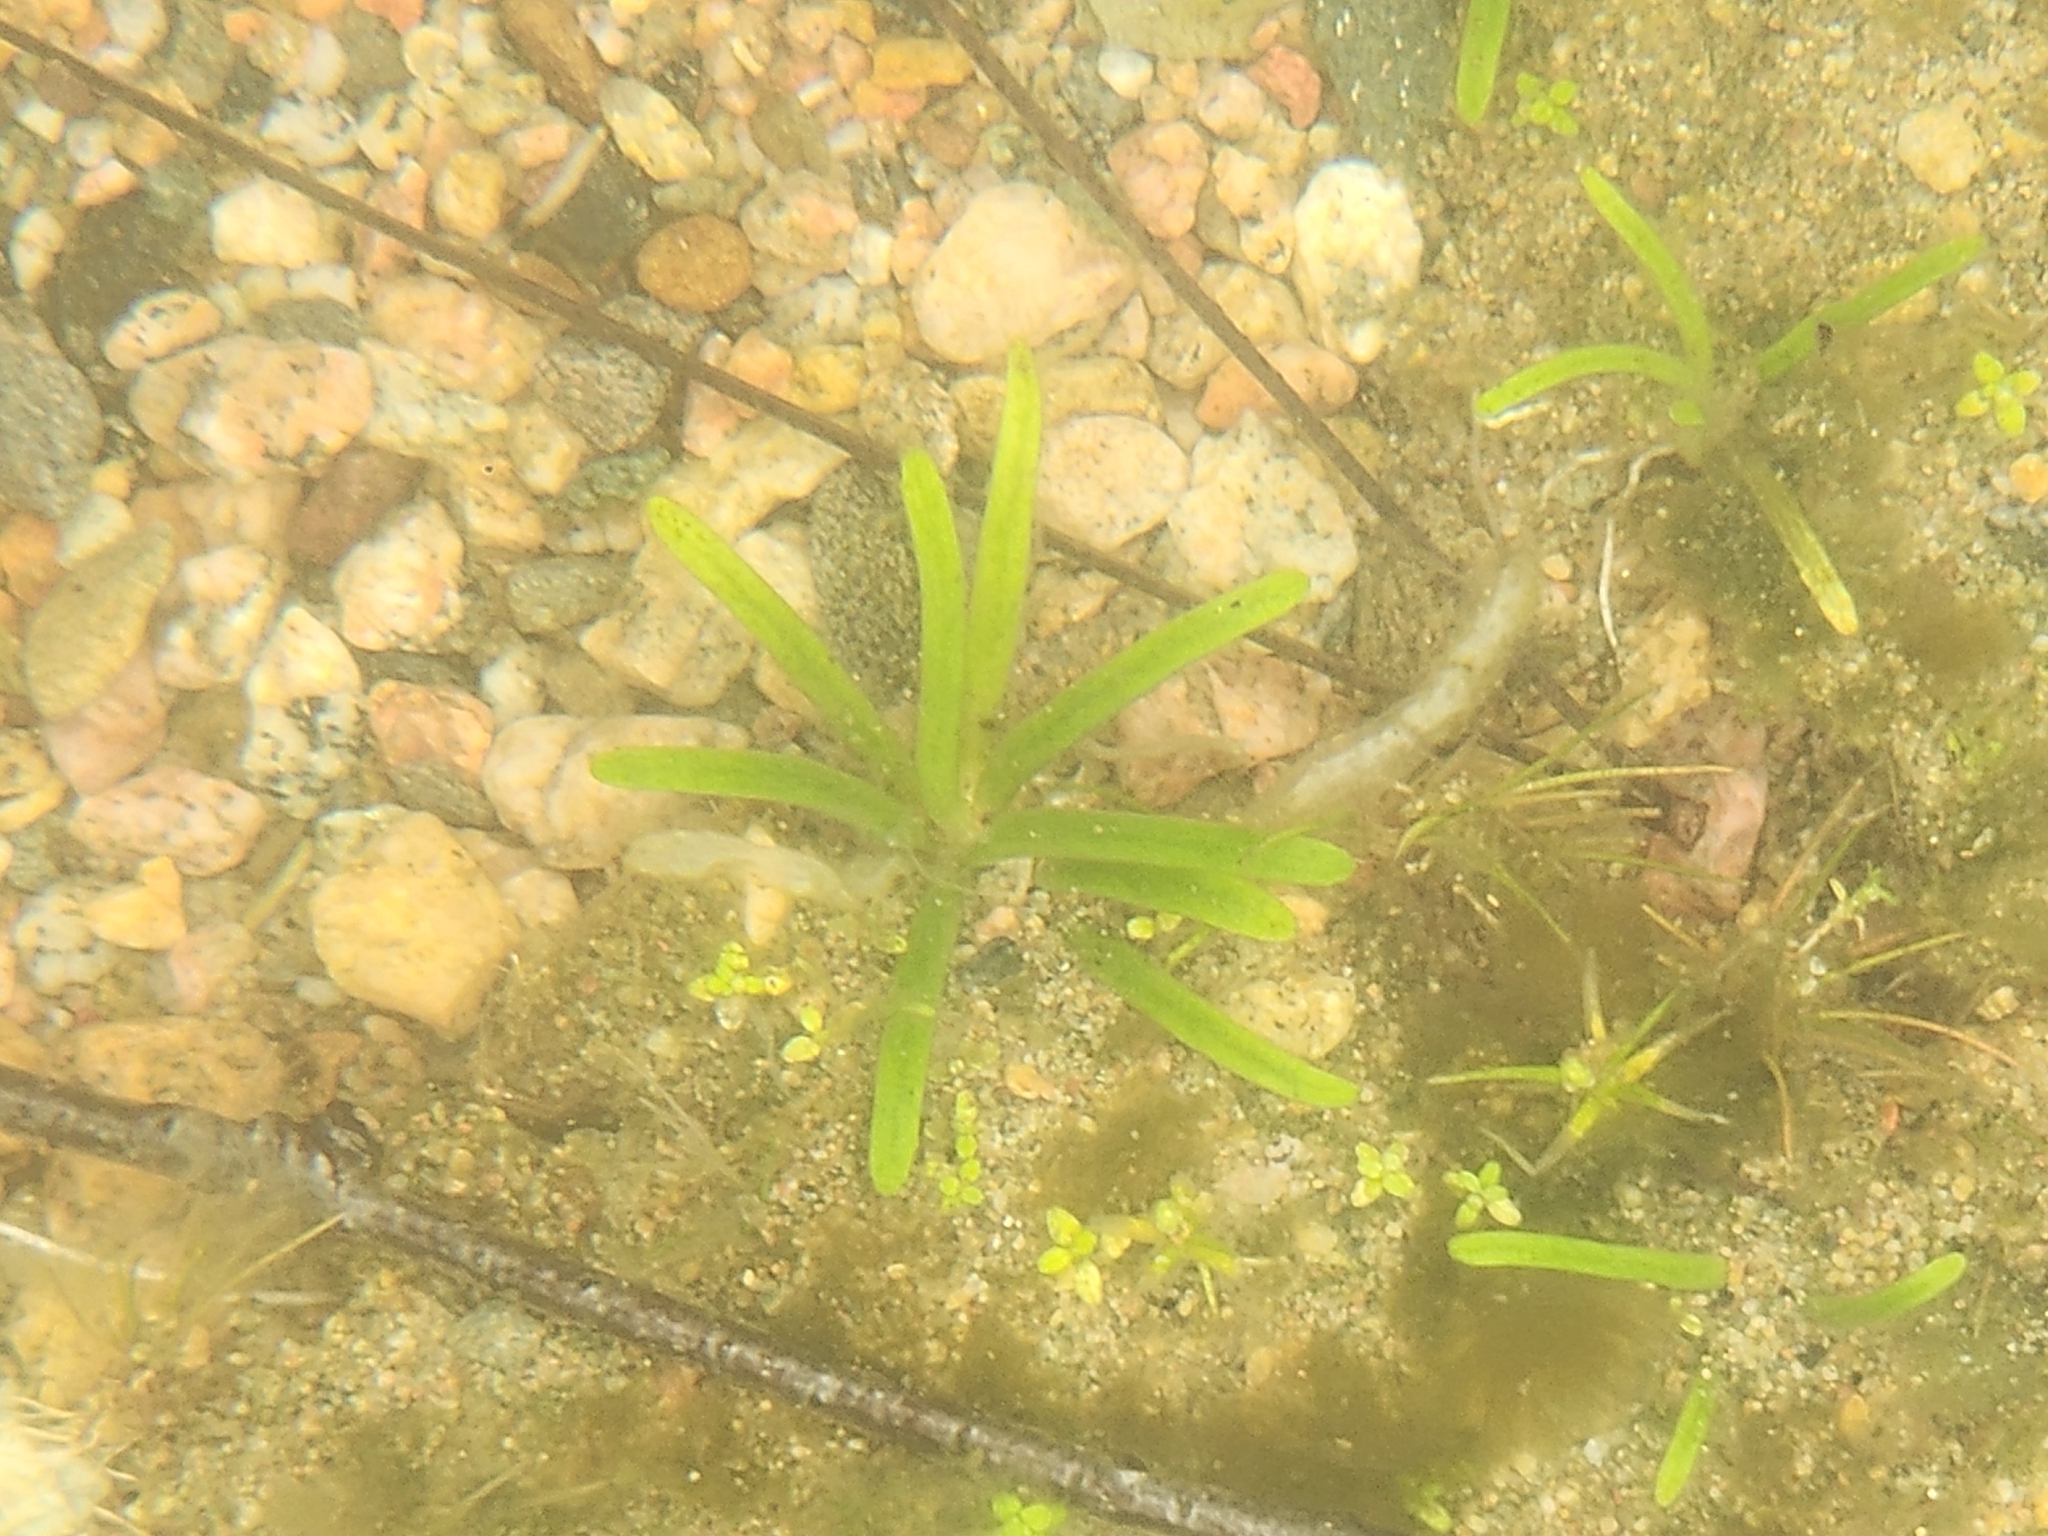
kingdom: Plantae
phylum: Tracheophyta
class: Magnoliopsida
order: Asterales
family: Campanulaceae
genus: Lobelia
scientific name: Lobelia dortmanna
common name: Water lobelia
